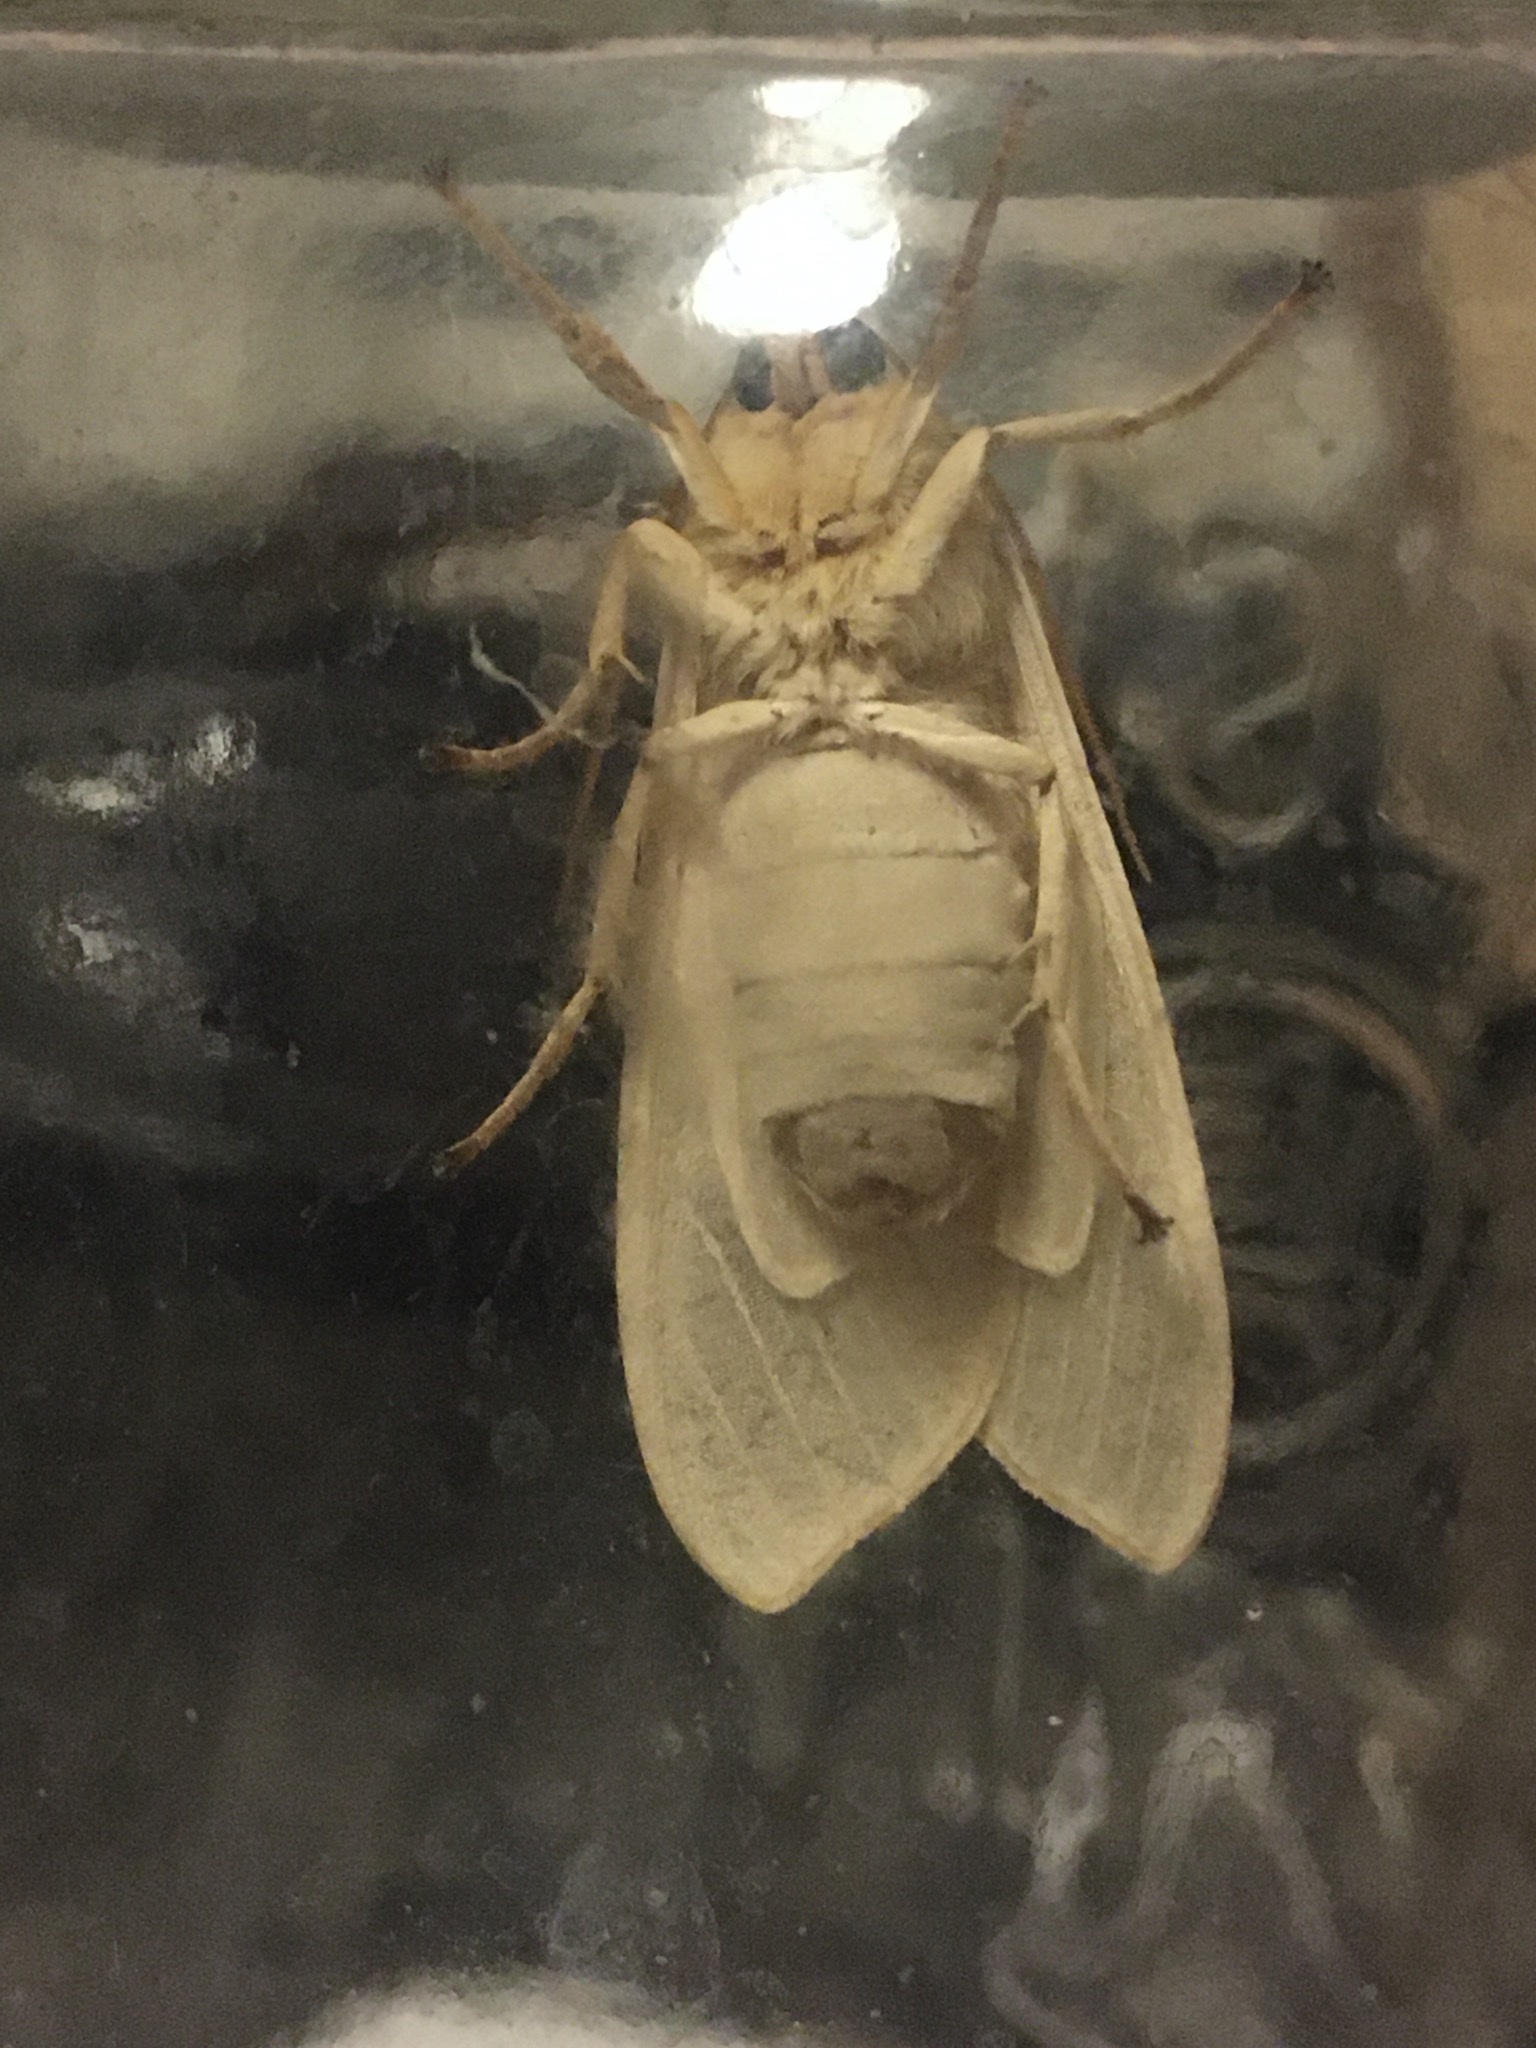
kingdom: Animalia
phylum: Arthropoda
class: Insecta
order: Lepidoptera
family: Erebidae
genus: Halysidota
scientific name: Halysidota
